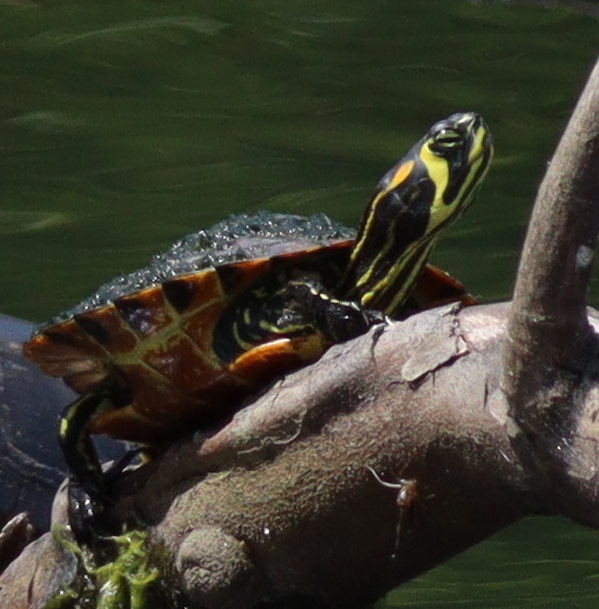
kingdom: Animalia
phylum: Chordata
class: Testudines
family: Emydidae
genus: Trachemys
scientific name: Trachemys scripta
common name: Slider
